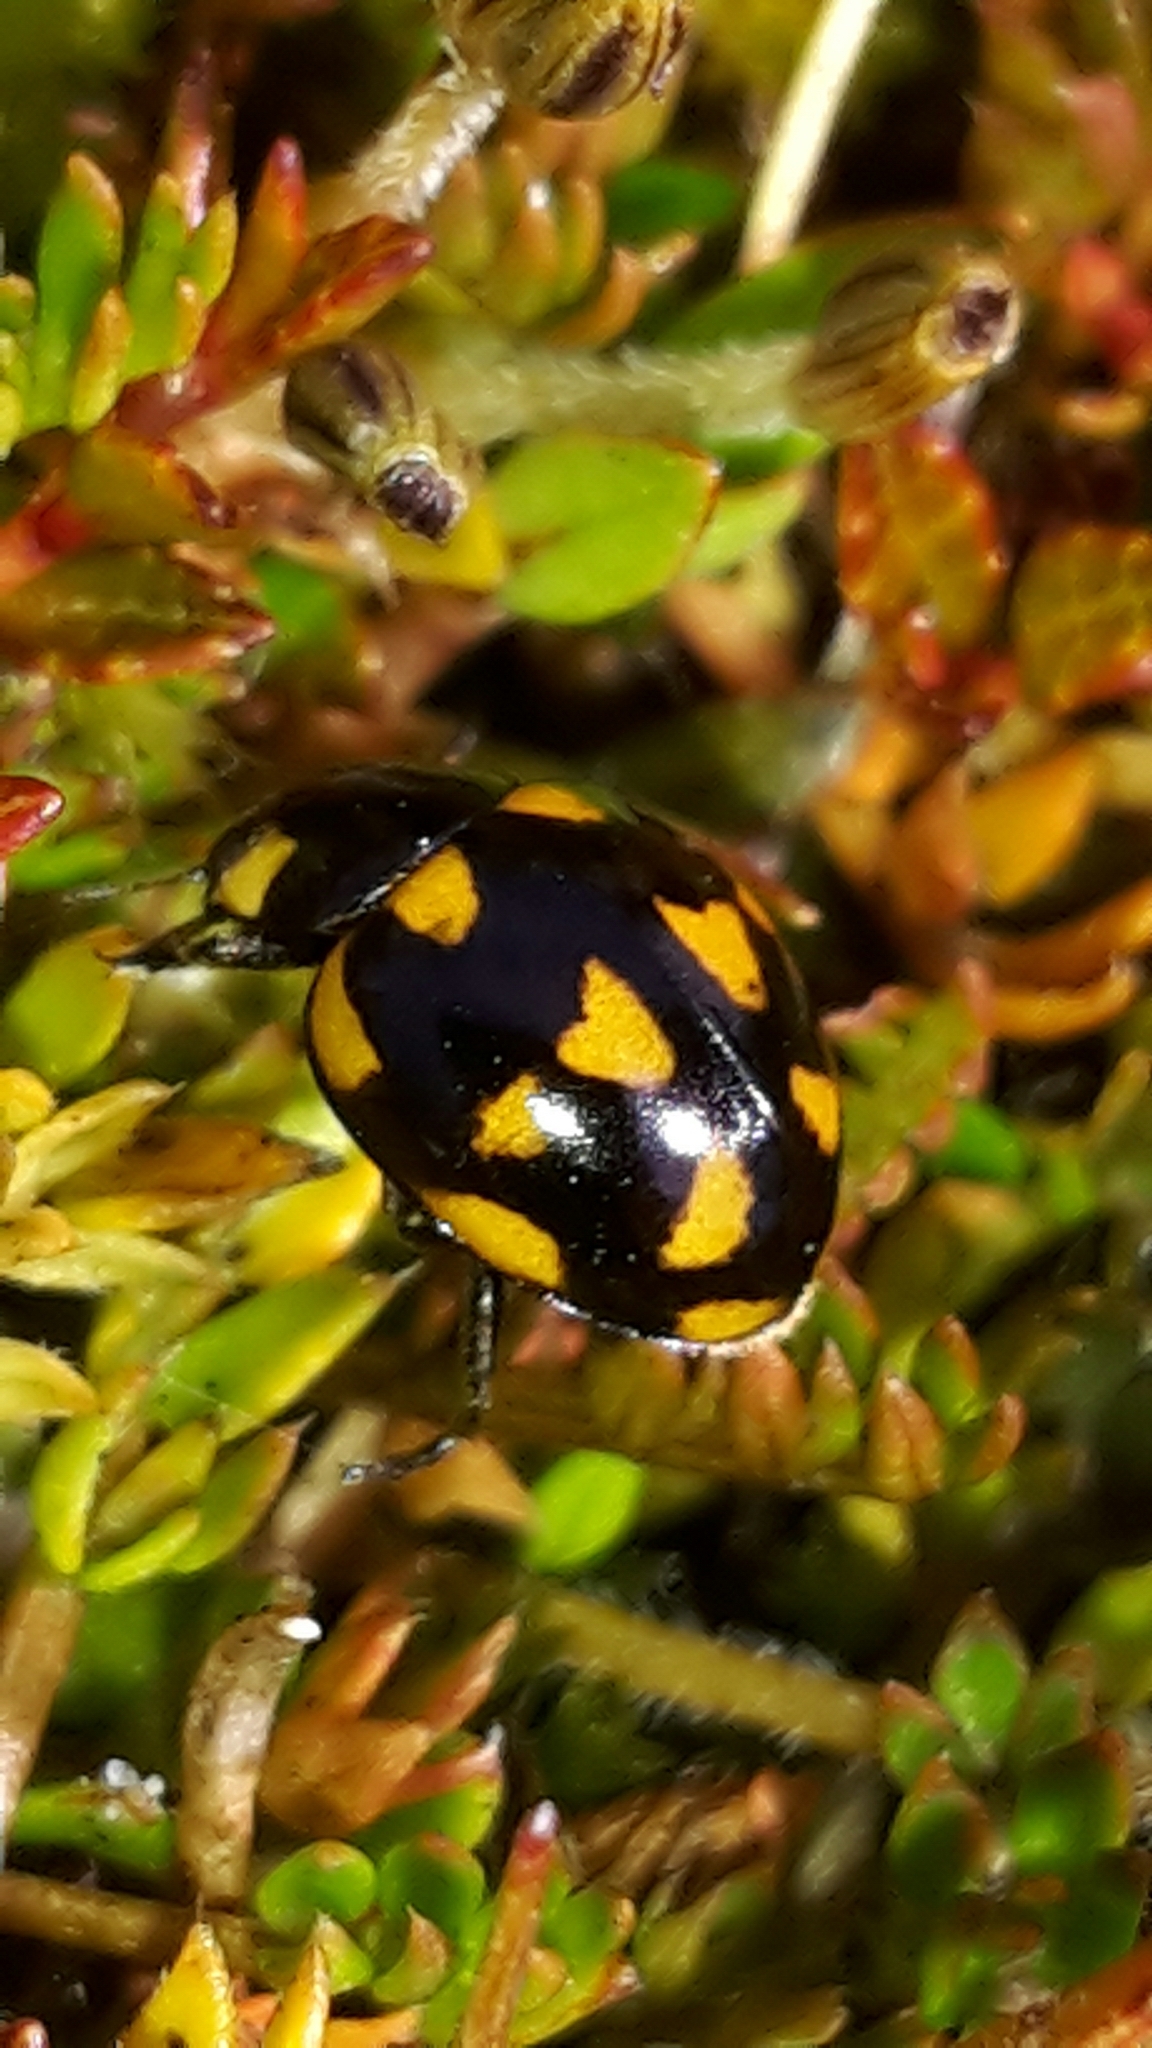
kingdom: Animalia
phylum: Arthropoda
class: Insecta
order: Coleoptera
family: Coccinellidae
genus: Coccinella
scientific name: Coccinella leonina
